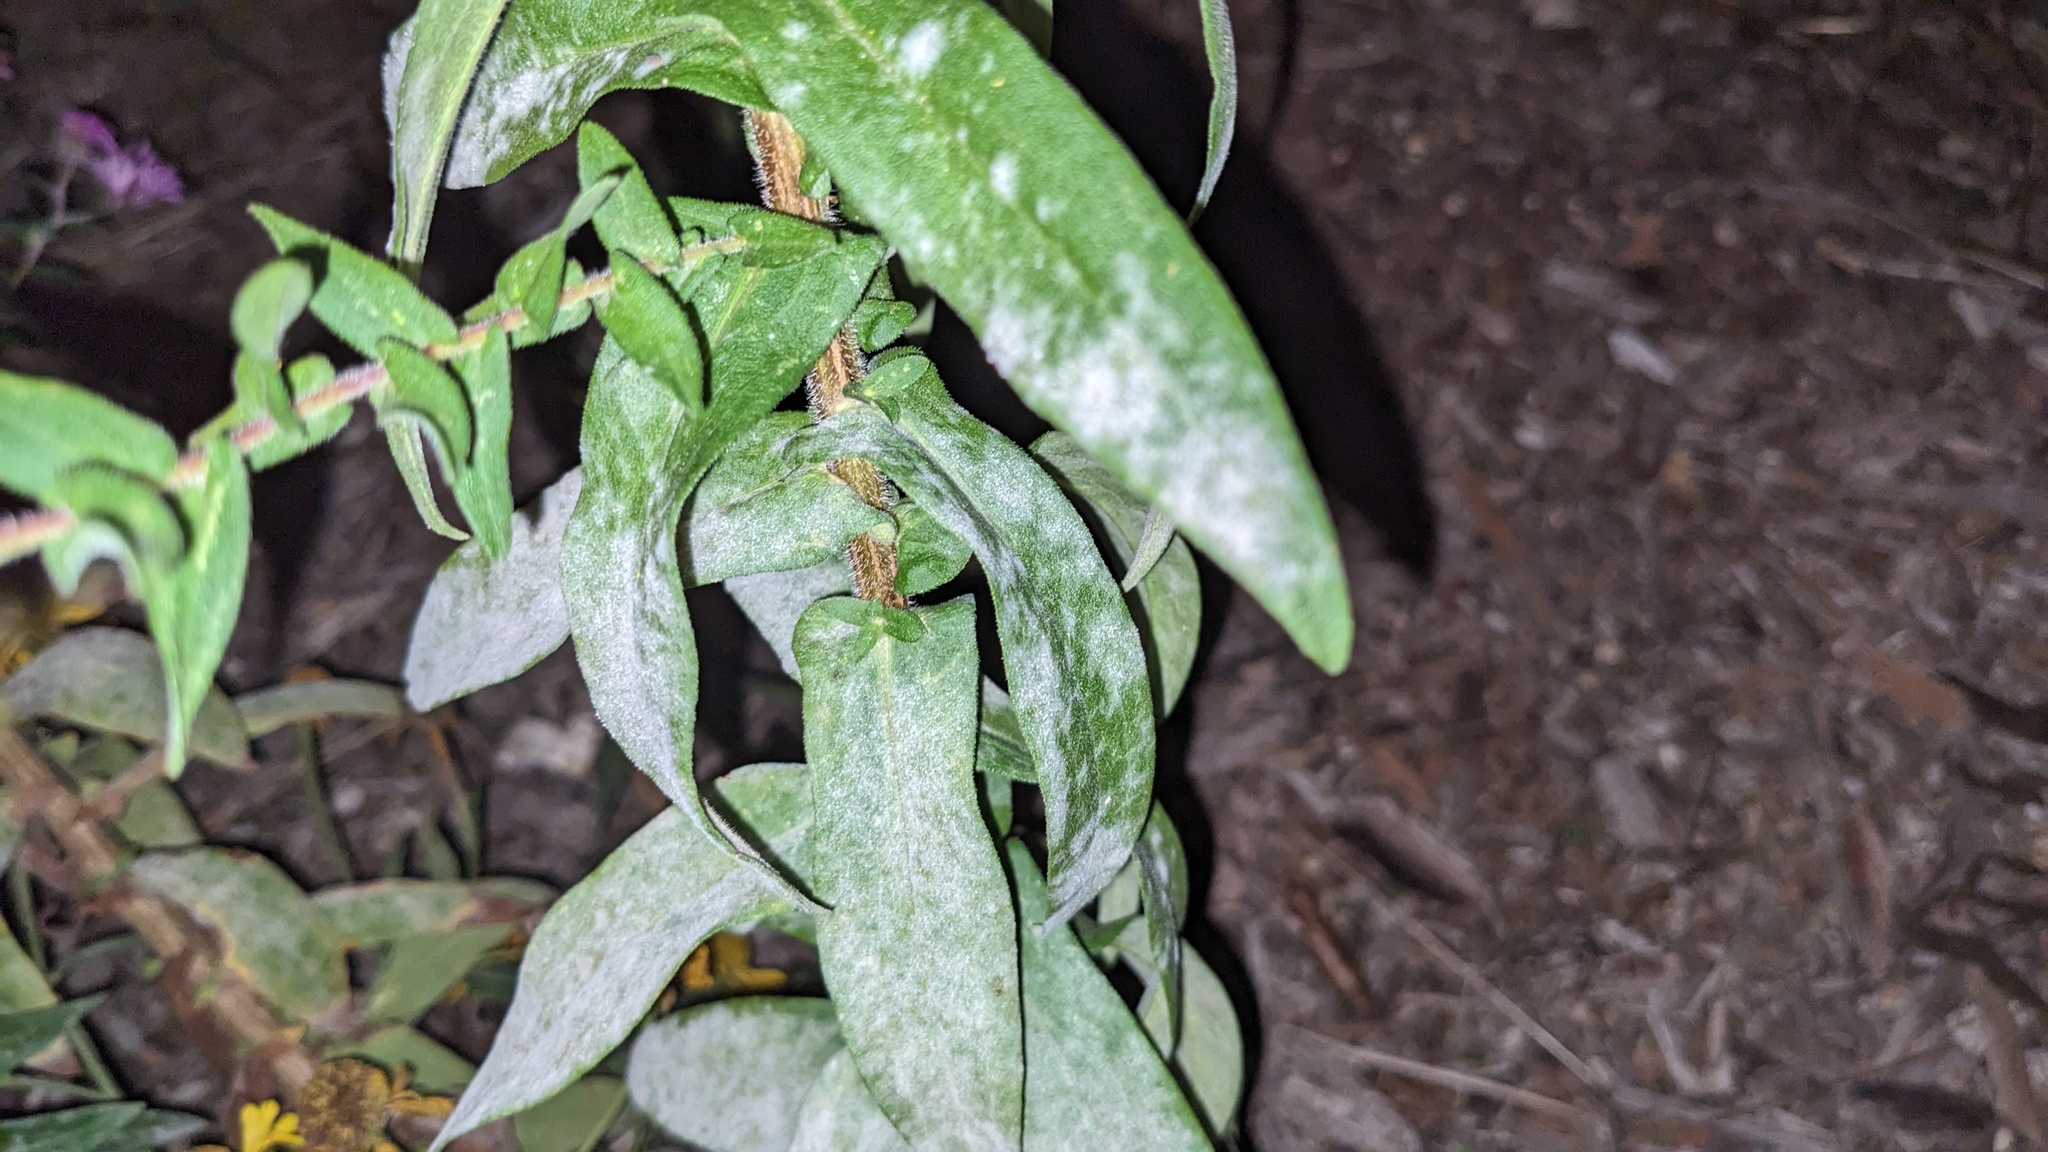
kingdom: Fungi
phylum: Ascomycota
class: Leotiomycetes
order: Helotiales
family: Erysiphaceae
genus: Golovinomyces
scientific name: Golovinomyces asterum
